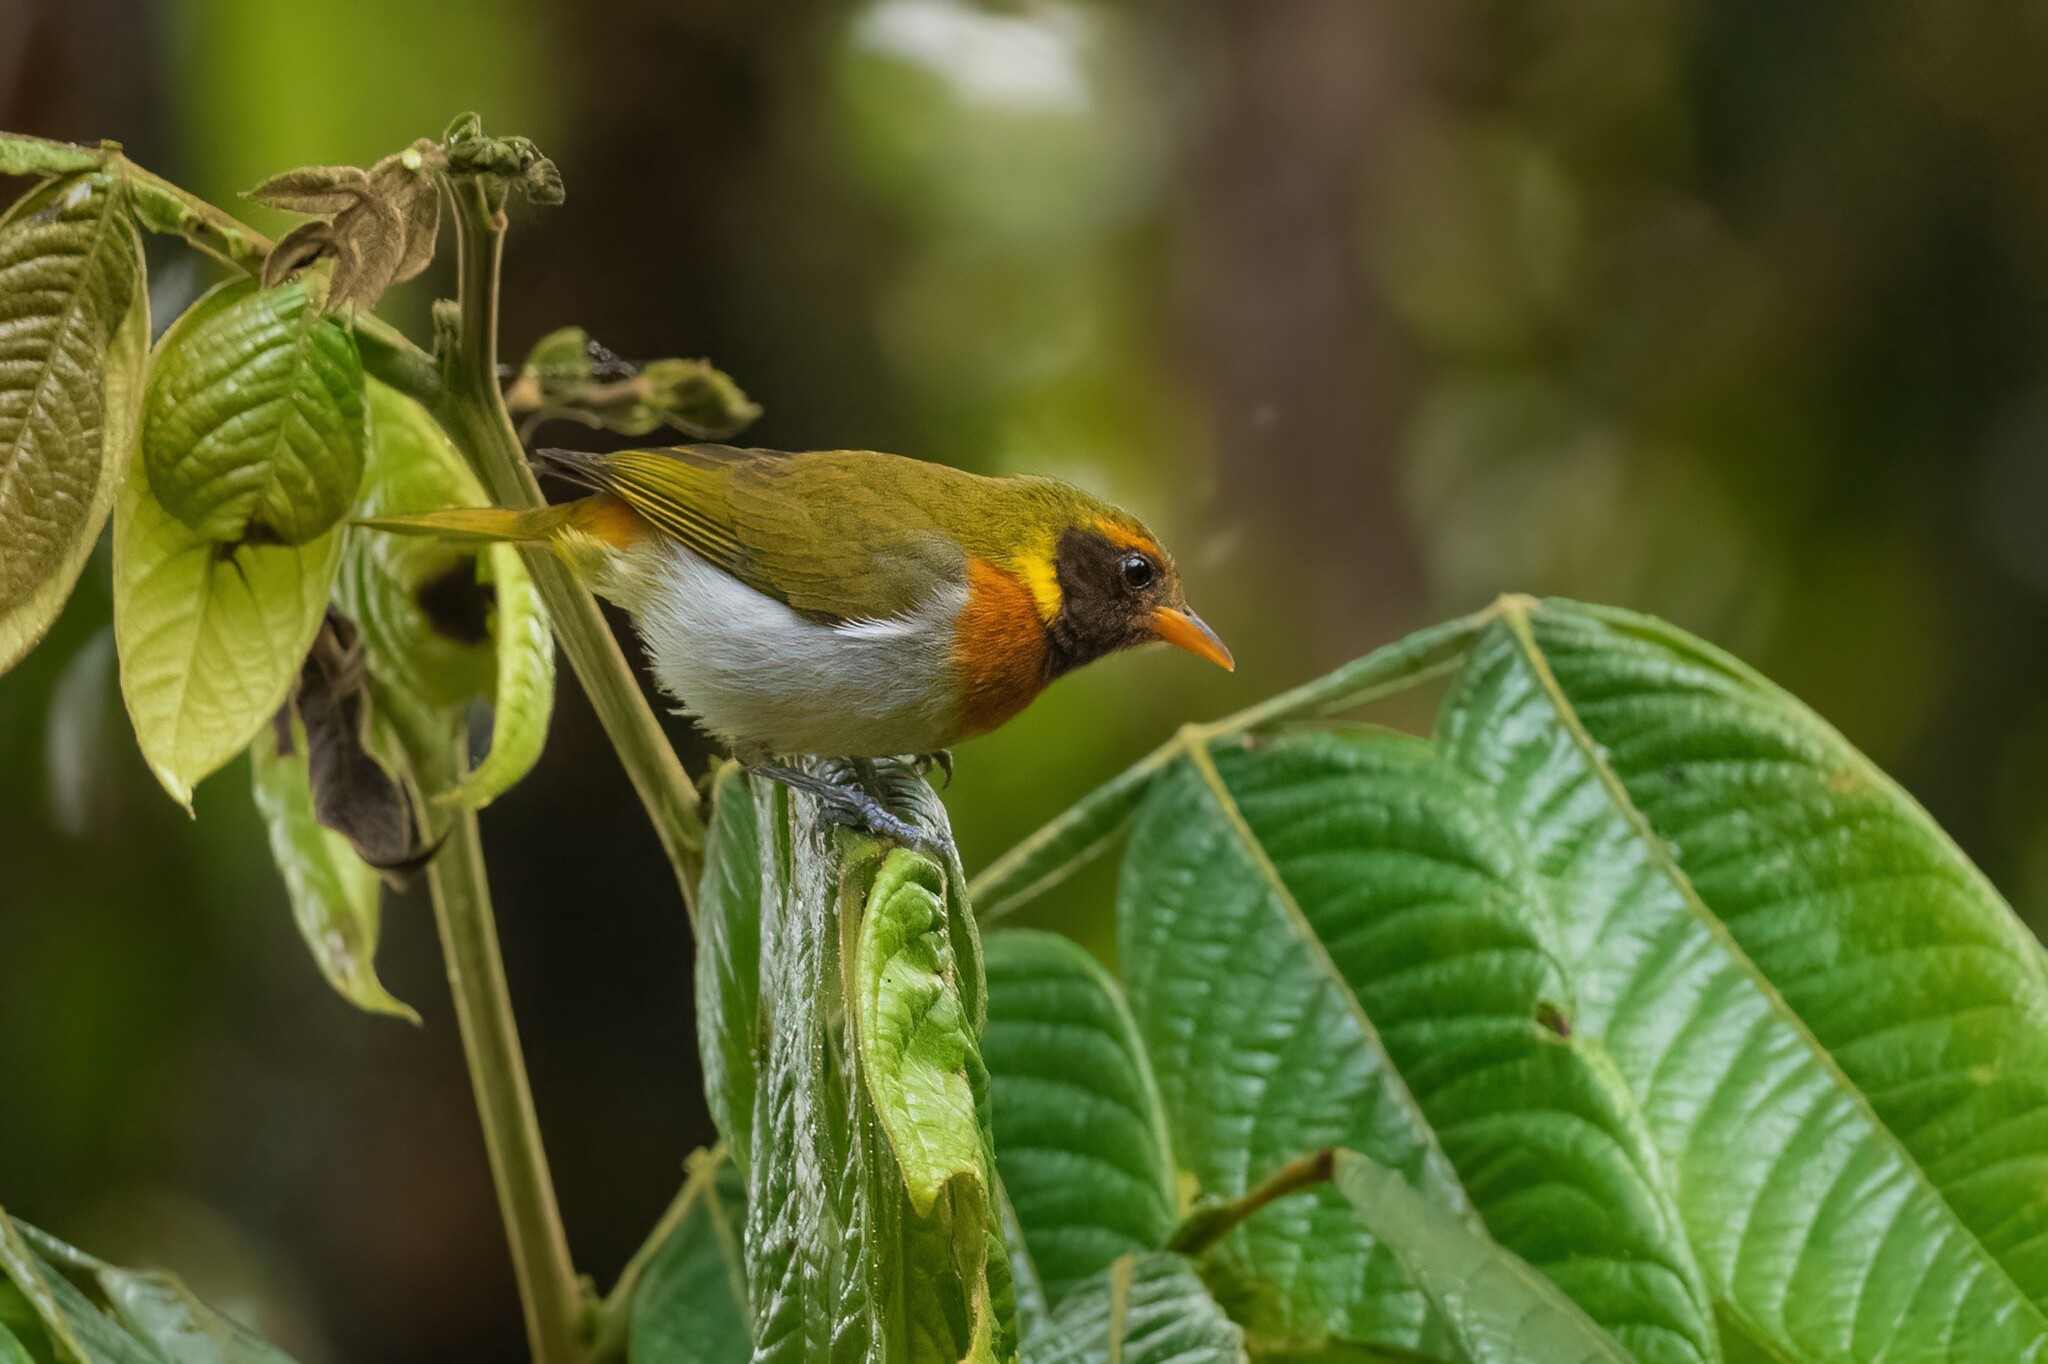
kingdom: Animalia
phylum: Chordata
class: Aves
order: Passeriformes
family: Thraupidae
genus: Hemithraupis
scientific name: Hemithraupis guira
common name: Guira tanager
